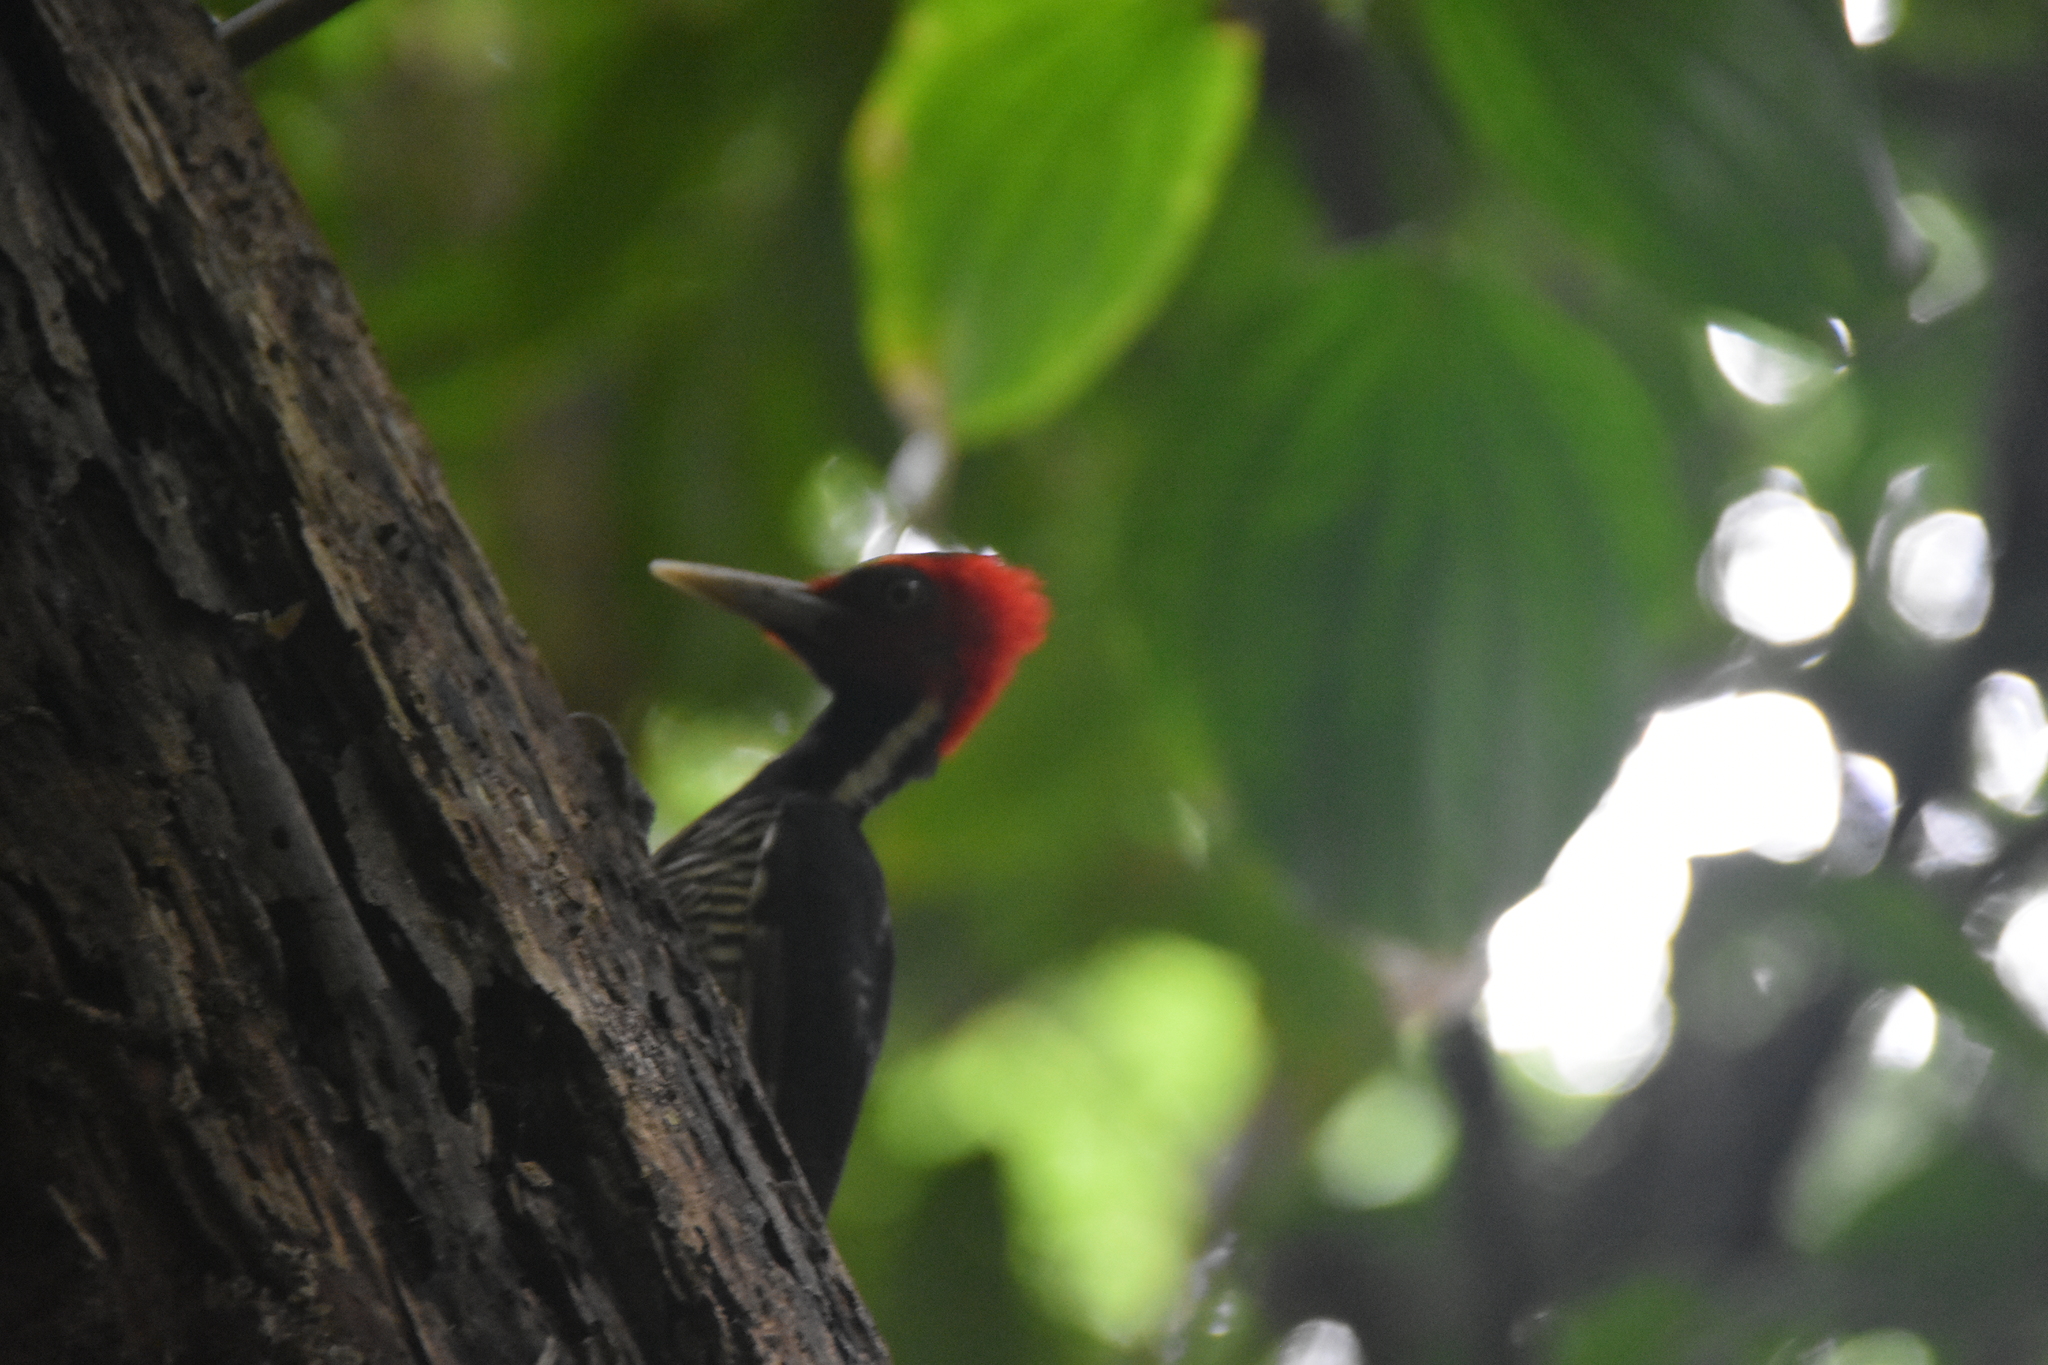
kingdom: Animalia
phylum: Chordata
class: Aves
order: Piciformes
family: Picidae
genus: Campephilus
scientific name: Campephilus guatemalensis
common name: Pale-billed woodpecker
